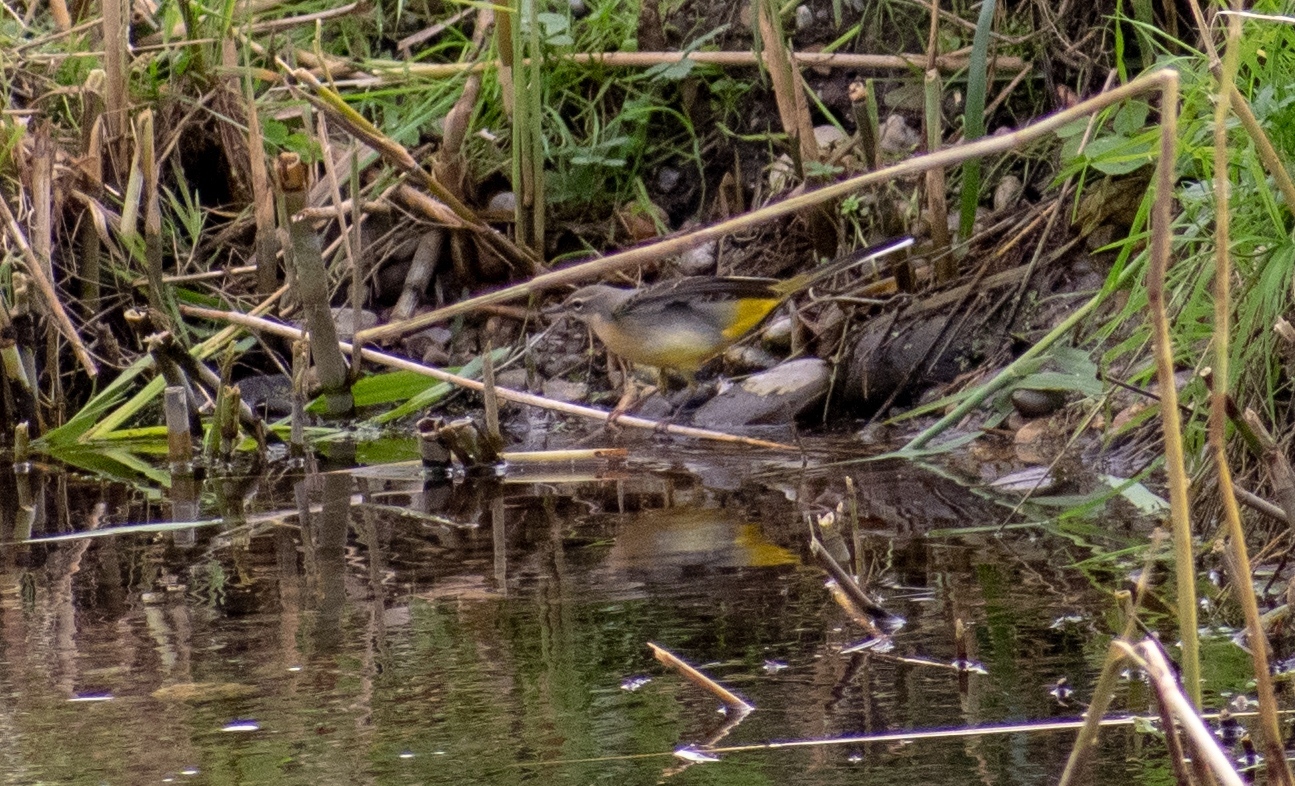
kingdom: Animalia
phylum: Chordata
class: Aves
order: Passeriformes
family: Motacillidae
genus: Motacilla
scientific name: Motacilla cinerea
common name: Grey wagtail
